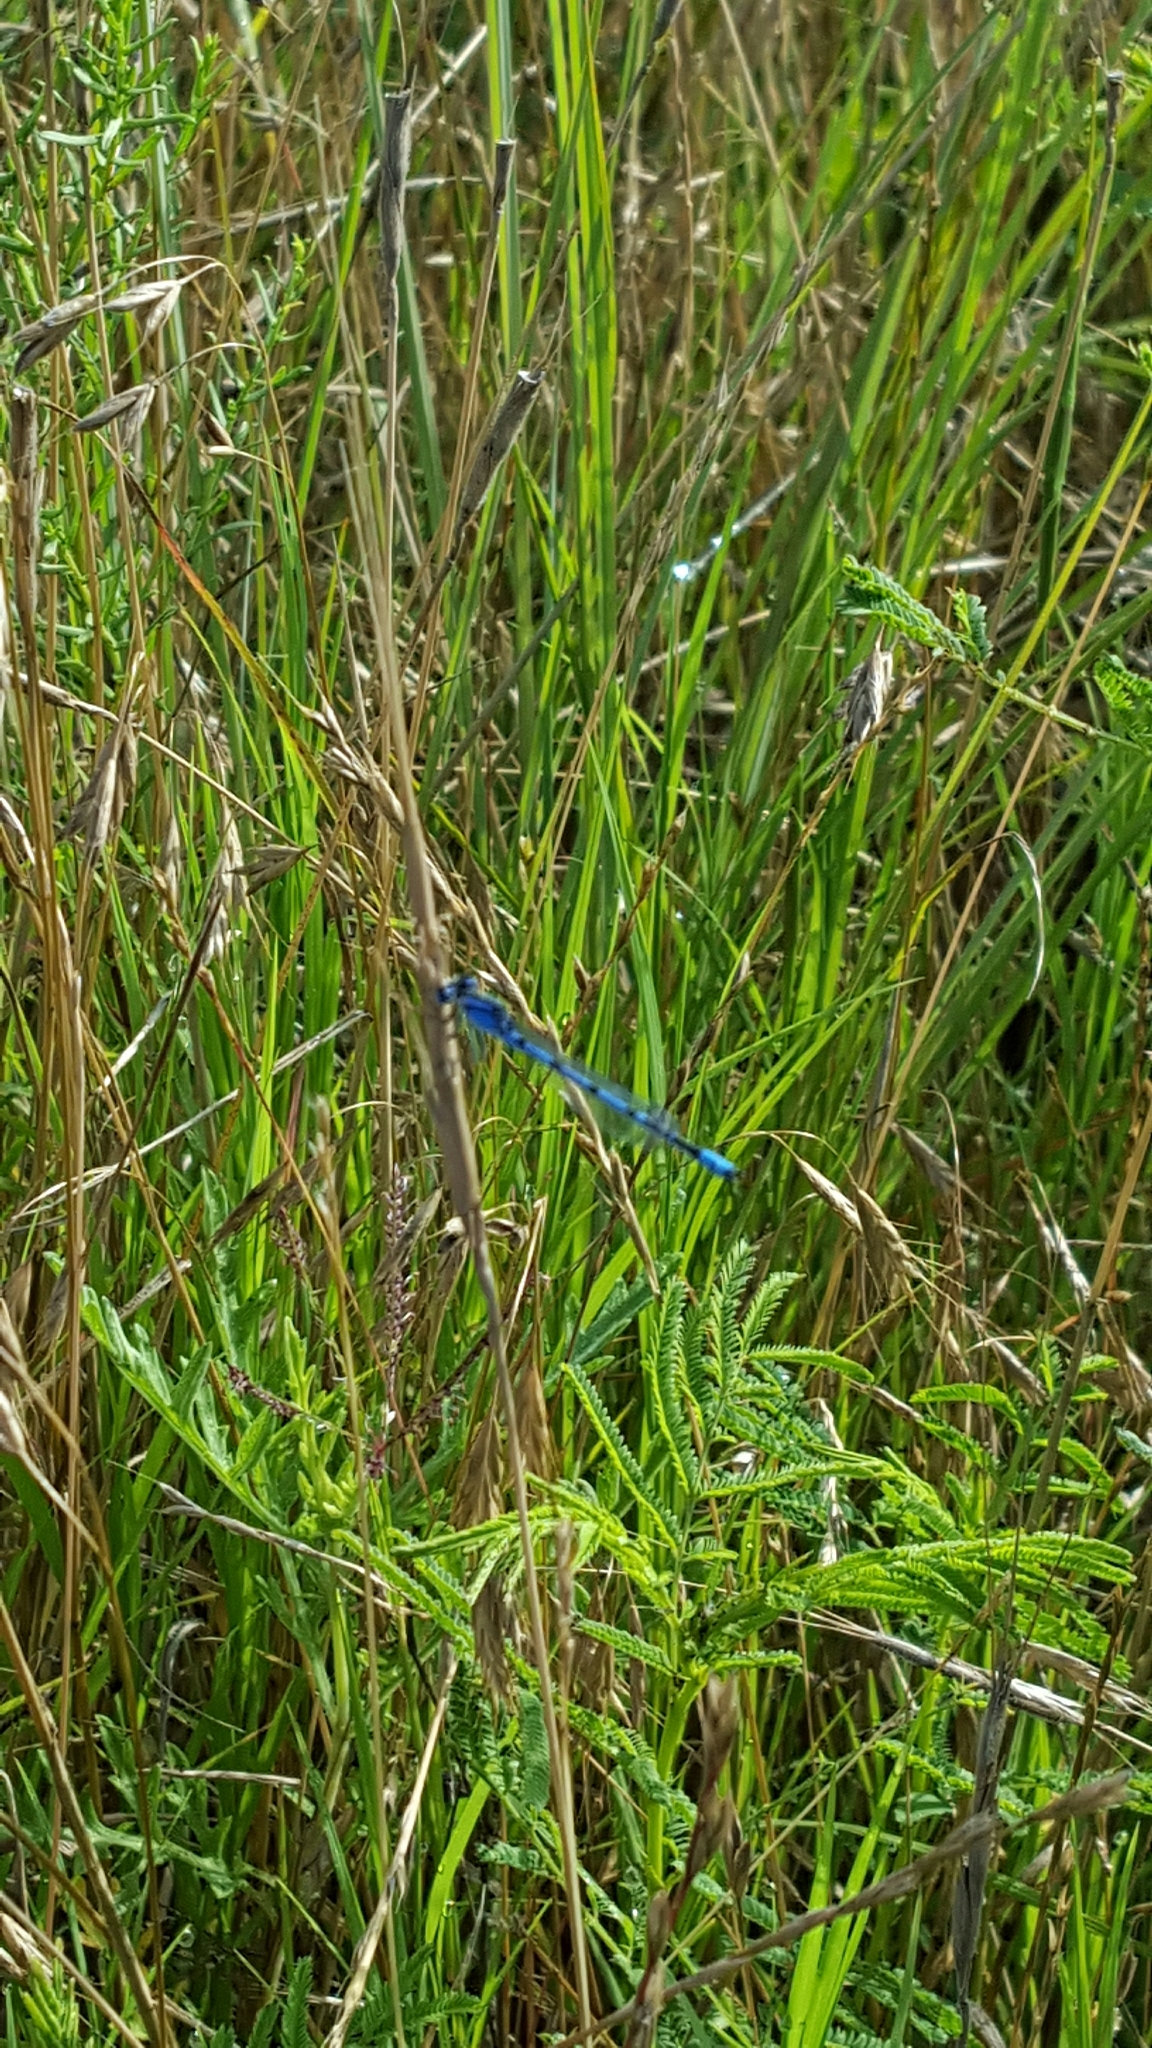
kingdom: Animalia
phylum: Arthropoda
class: Insecta
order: Odonata
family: Coenagrionidae
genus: Enallagma
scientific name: Enallagma civile
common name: Damselfly
